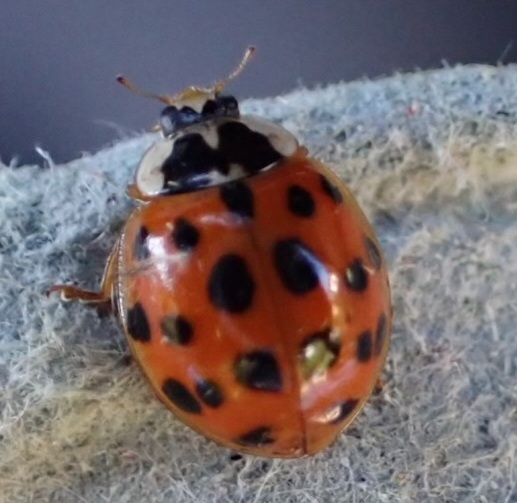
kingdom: Animalia
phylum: Arthropoda
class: Insecta
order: Coleoptera
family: Coccinellidae
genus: Harmonia
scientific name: Harmonia axyridis
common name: Harlequin ladybird
